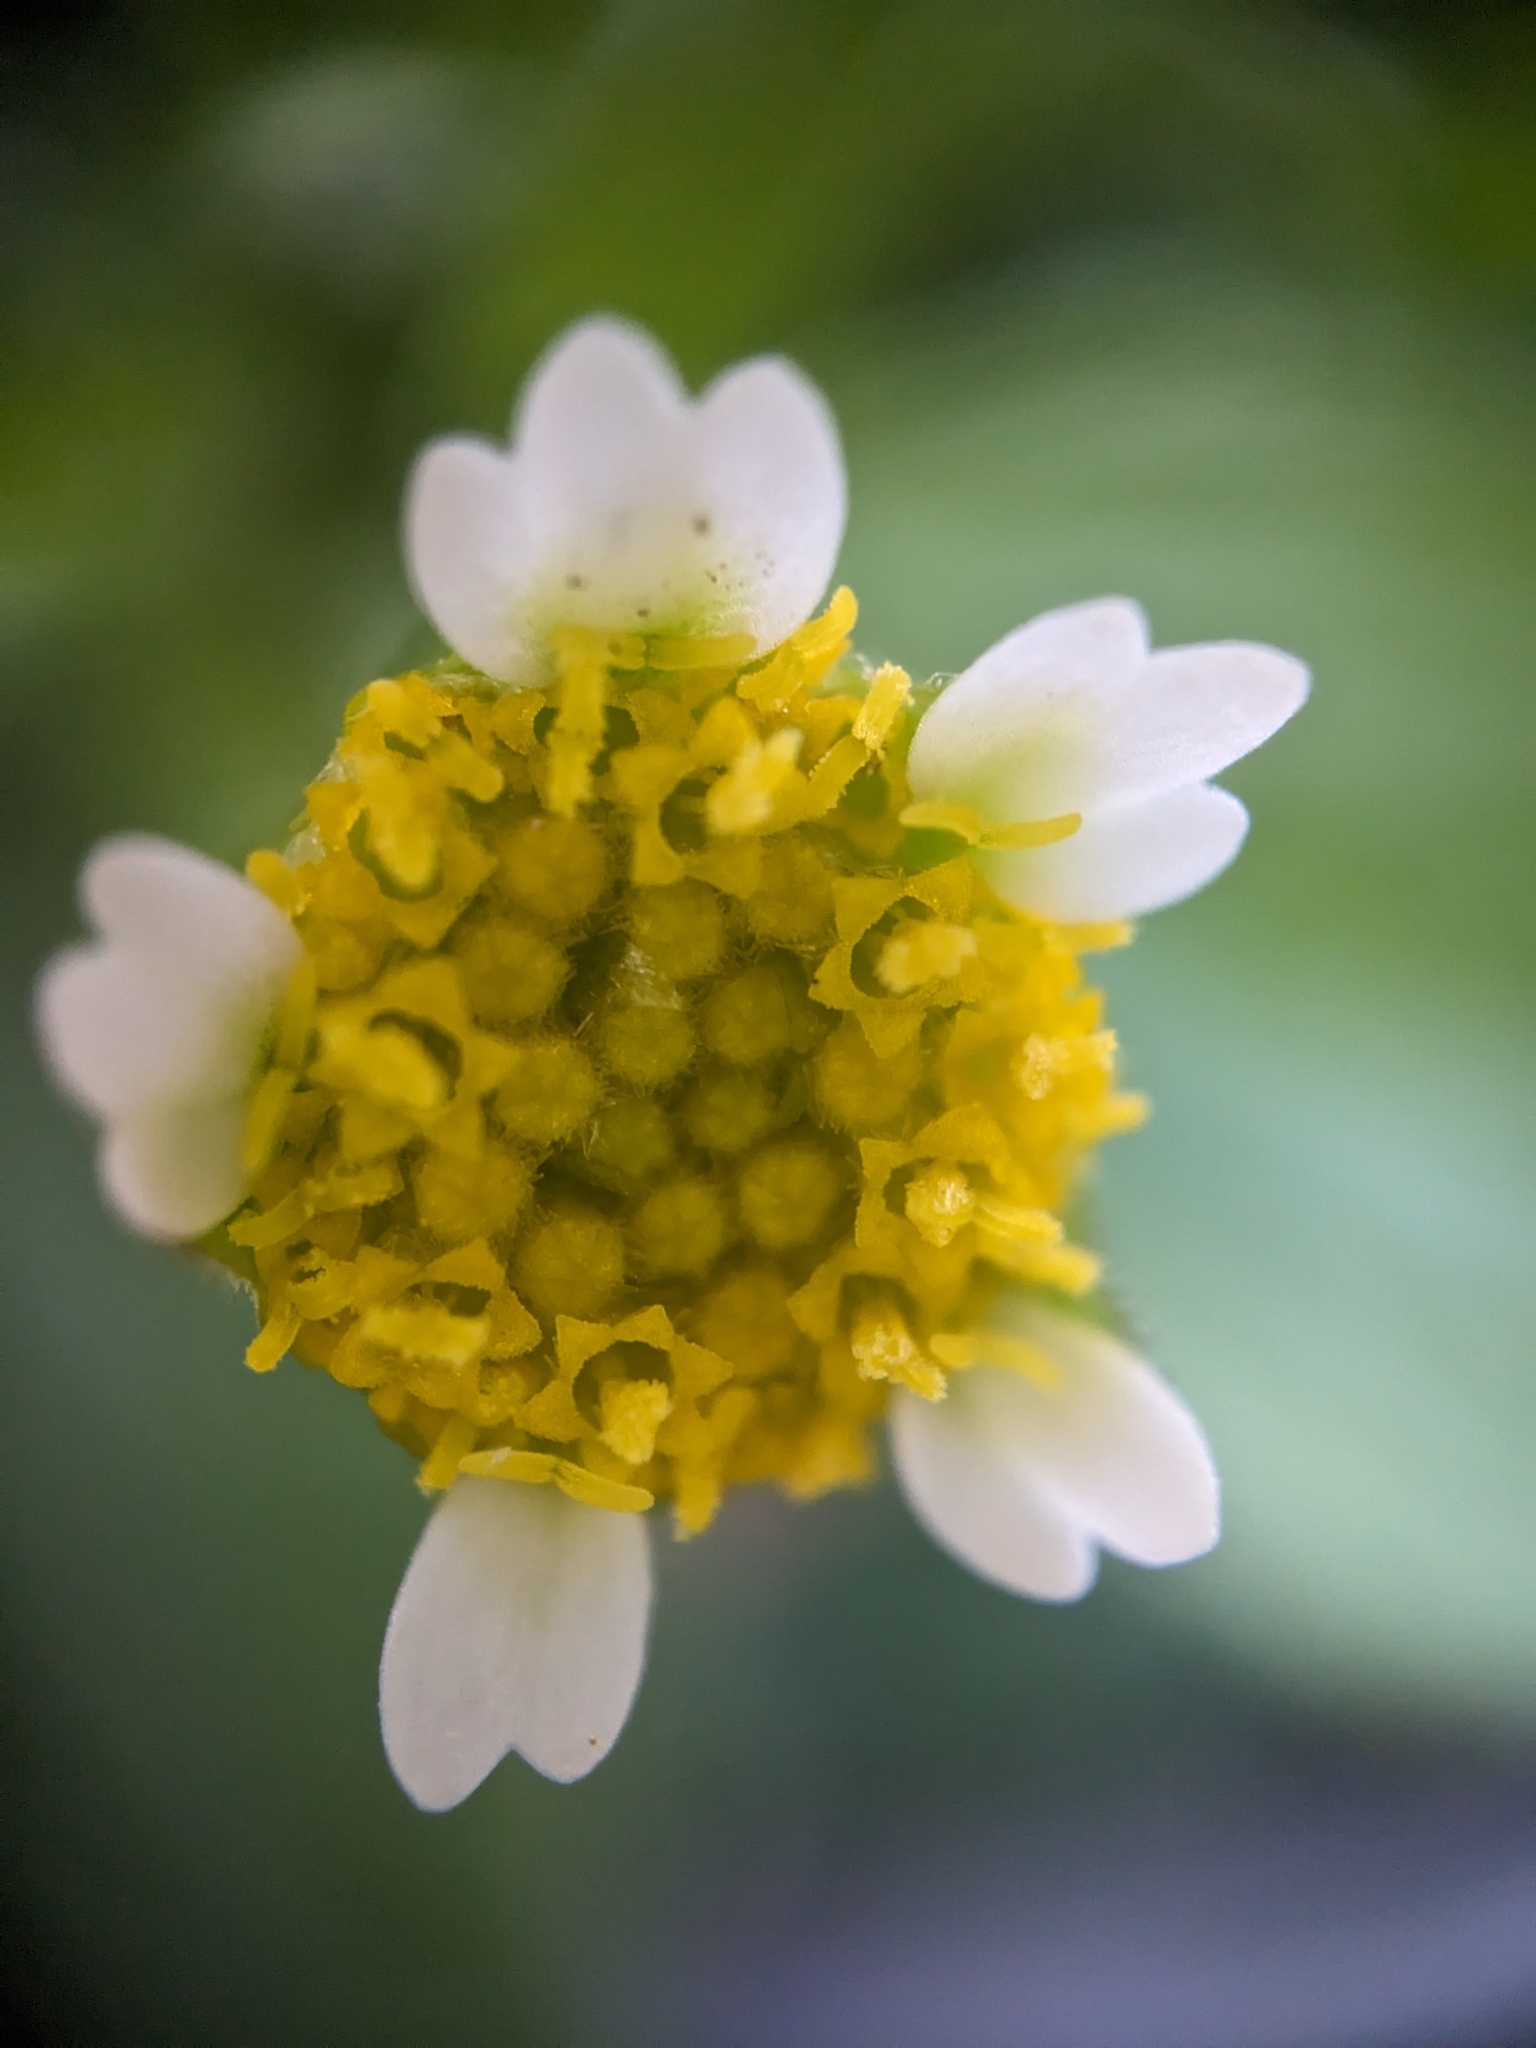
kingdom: Plantae
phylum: Tracheophyta
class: Magnoliopsida
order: Asterales
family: Asteraceae
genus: Galinsoga
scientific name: Galinsoga quadriradiata
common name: Shaggy soldier
